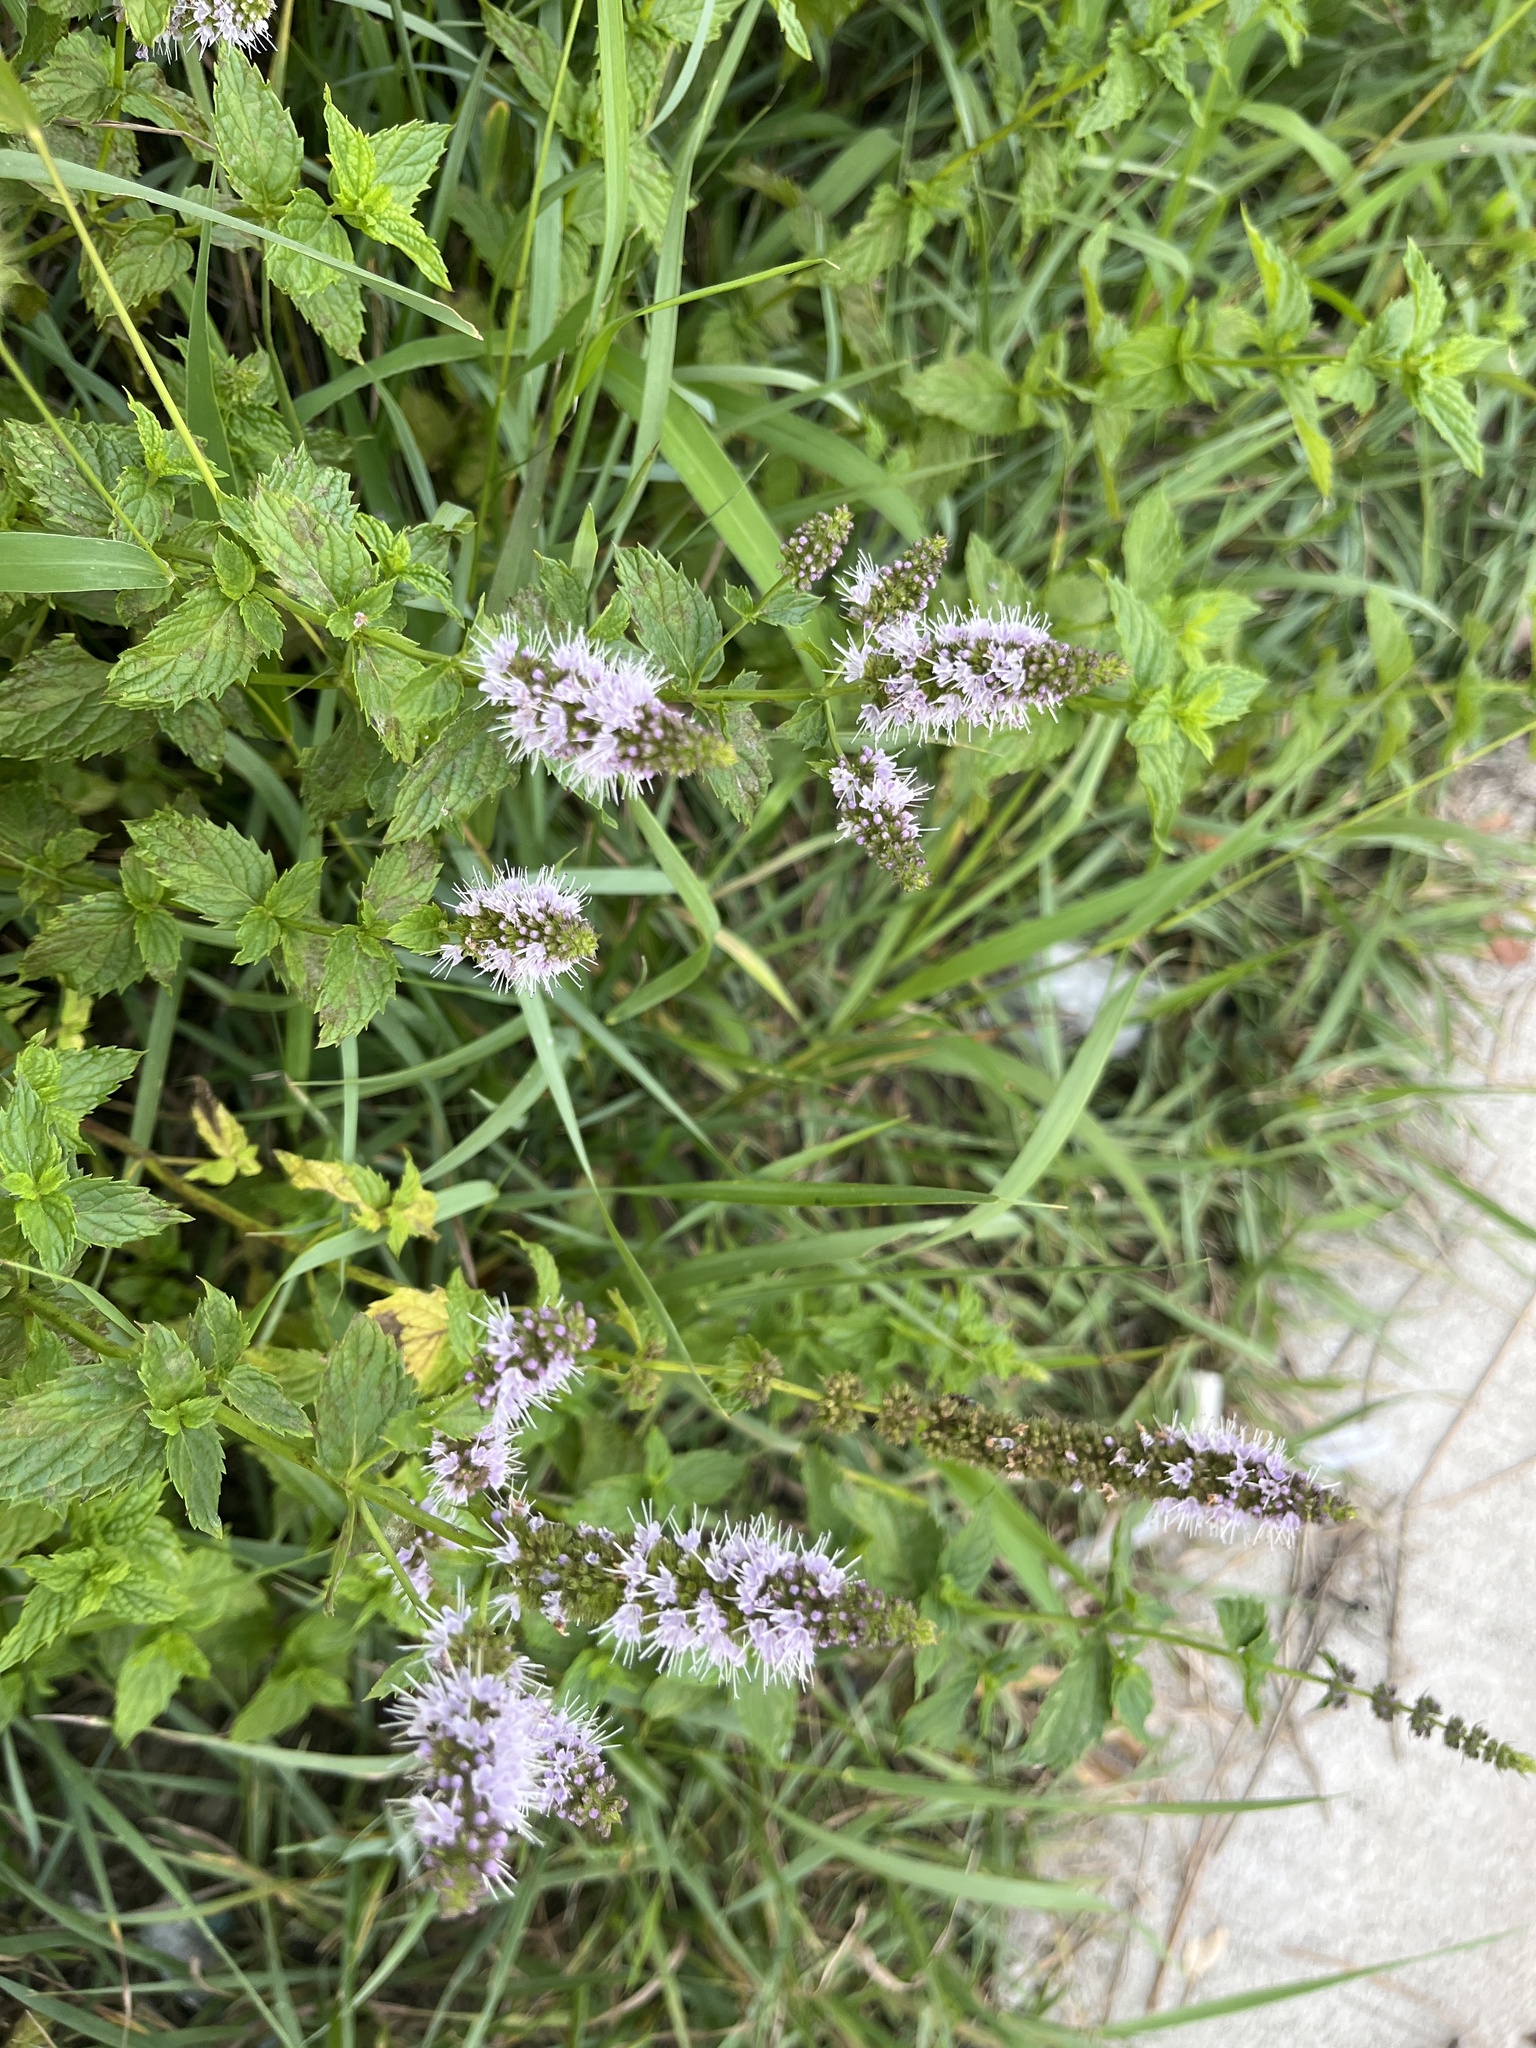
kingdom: Plantae
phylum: Tracheophyta
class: Magnoliopsida
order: Lamiales
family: Lamiaceae
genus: Mentha
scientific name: Mentha spicata
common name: Spearmint
